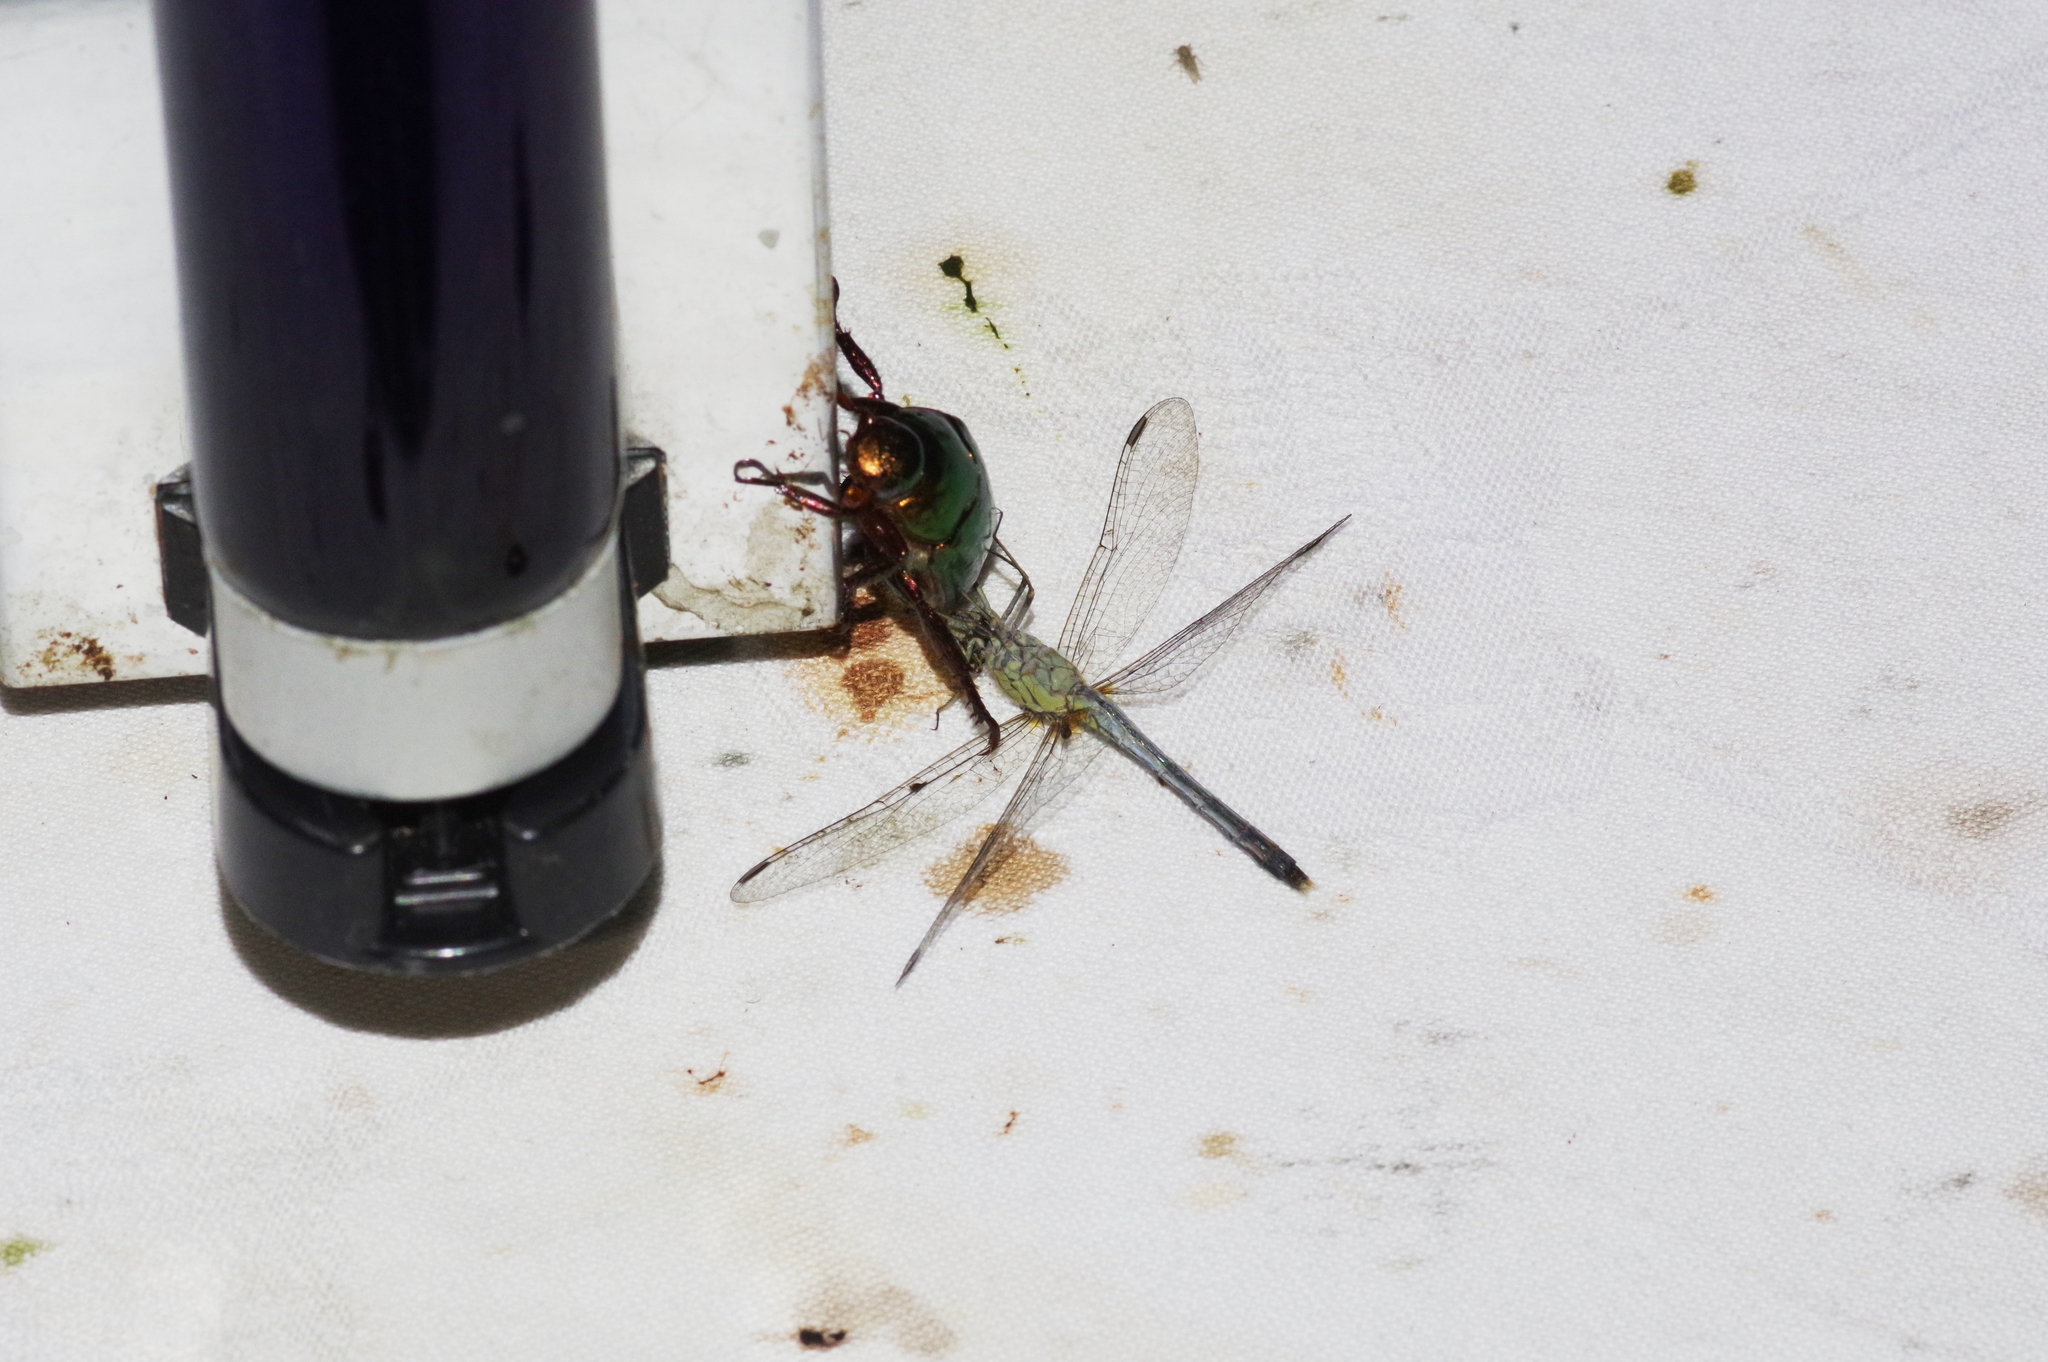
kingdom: Animalia
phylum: Arthropoda
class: Insecta
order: Odonata
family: Libellulidae
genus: Diplacodes
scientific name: Diplacodes trivialis
